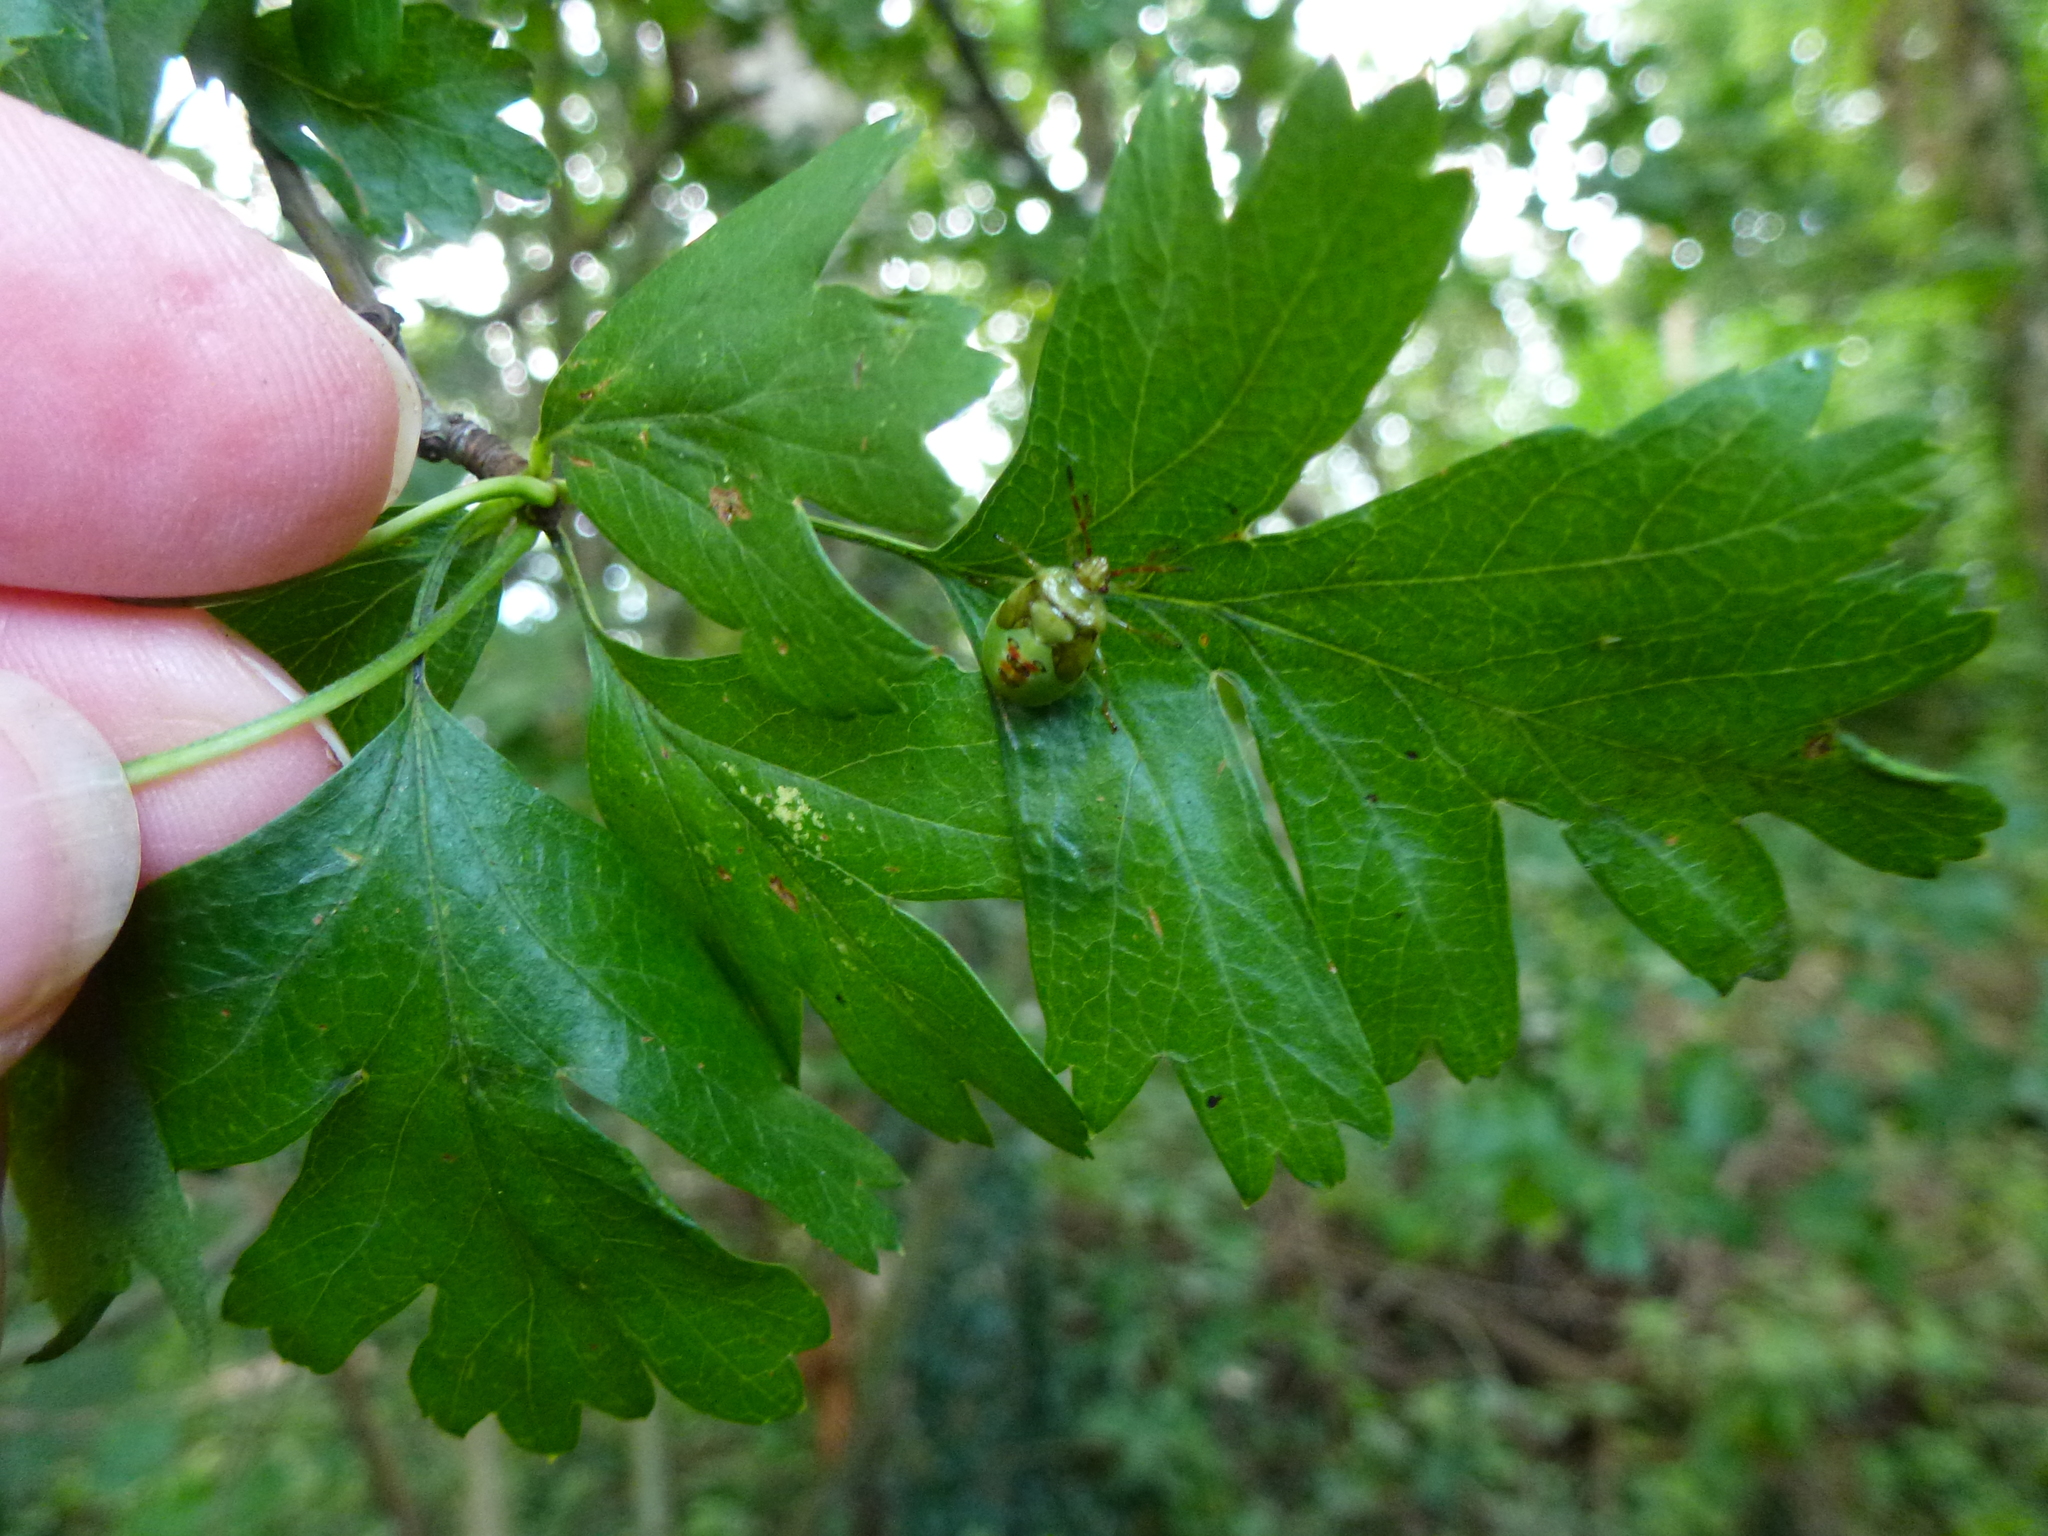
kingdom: Animalia
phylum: Arthropoda
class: Insecta
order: Hemiptera
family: Acanthosomatidae
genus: Elasmostethus
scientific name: Elasmostethus interstinctus
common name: Birch shieldbug
